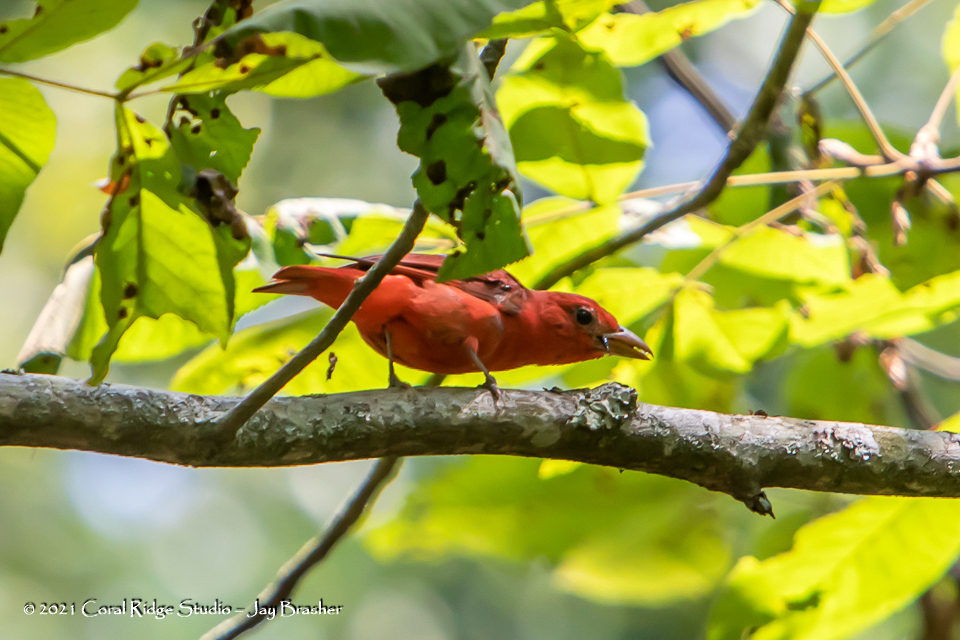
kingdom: Animalia
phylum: Chordata
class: Aves
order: Passeriformes
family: Cardinalidae
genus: Piranga
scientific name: Piranga rubra
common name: Summer tanager
